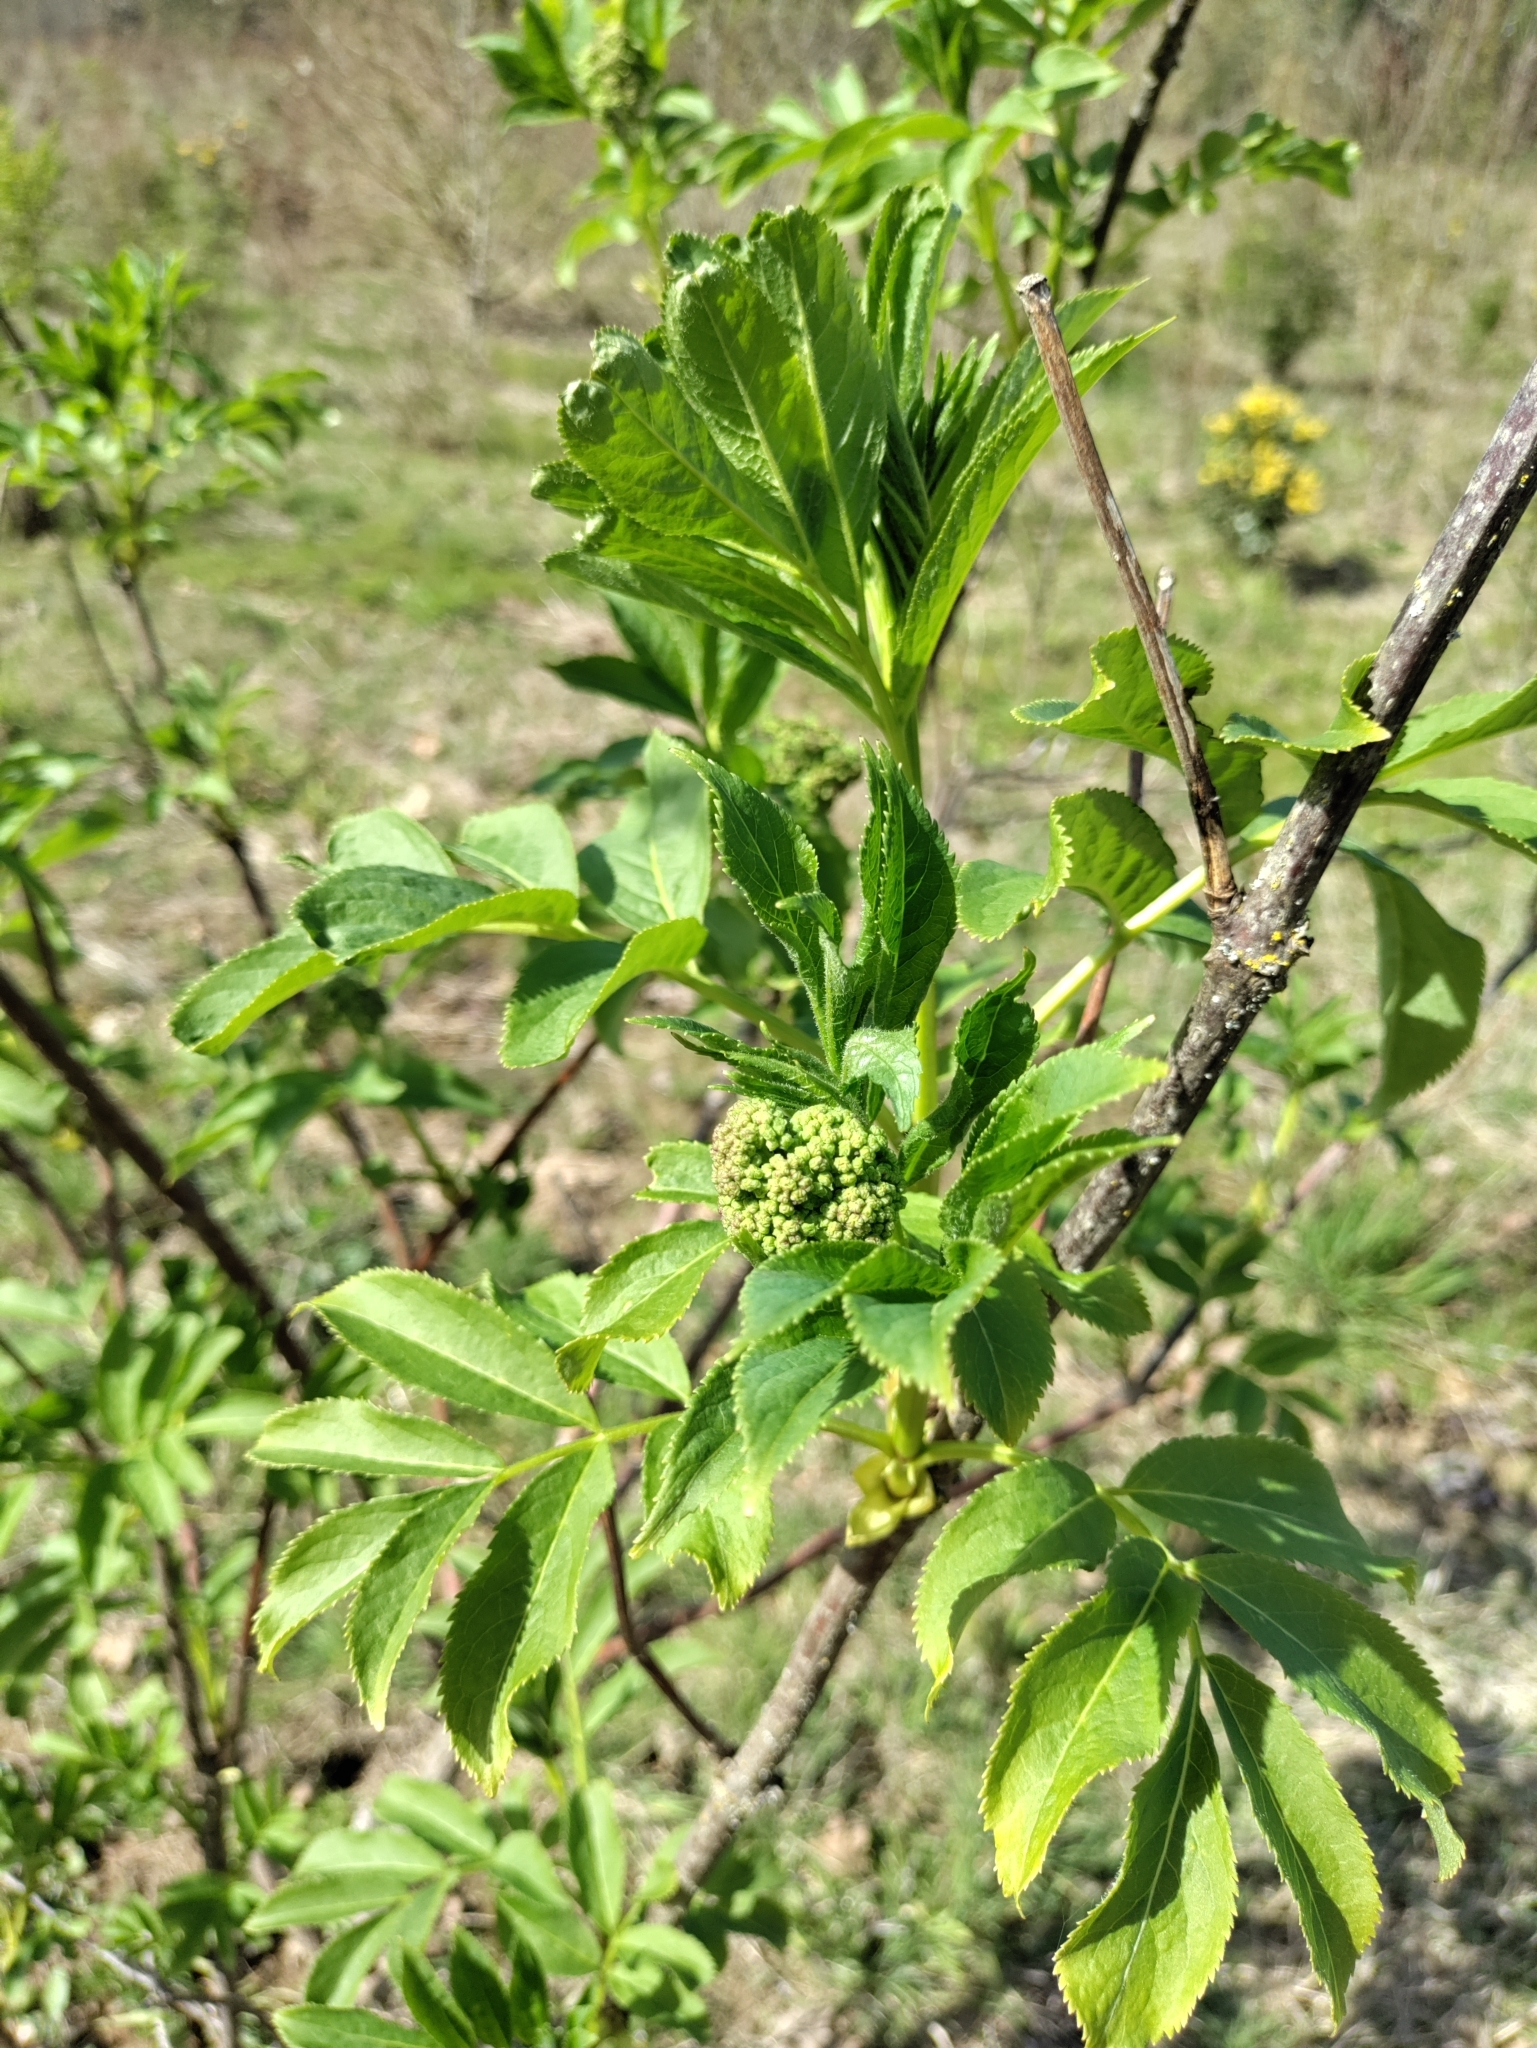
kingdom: Plantae
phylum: Tracheophyta
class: Magnoliopsida
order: Dipsacales
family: Viburnaceae
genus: Sambucus
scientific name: Sambucus racemosa
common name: Red-berried elder
